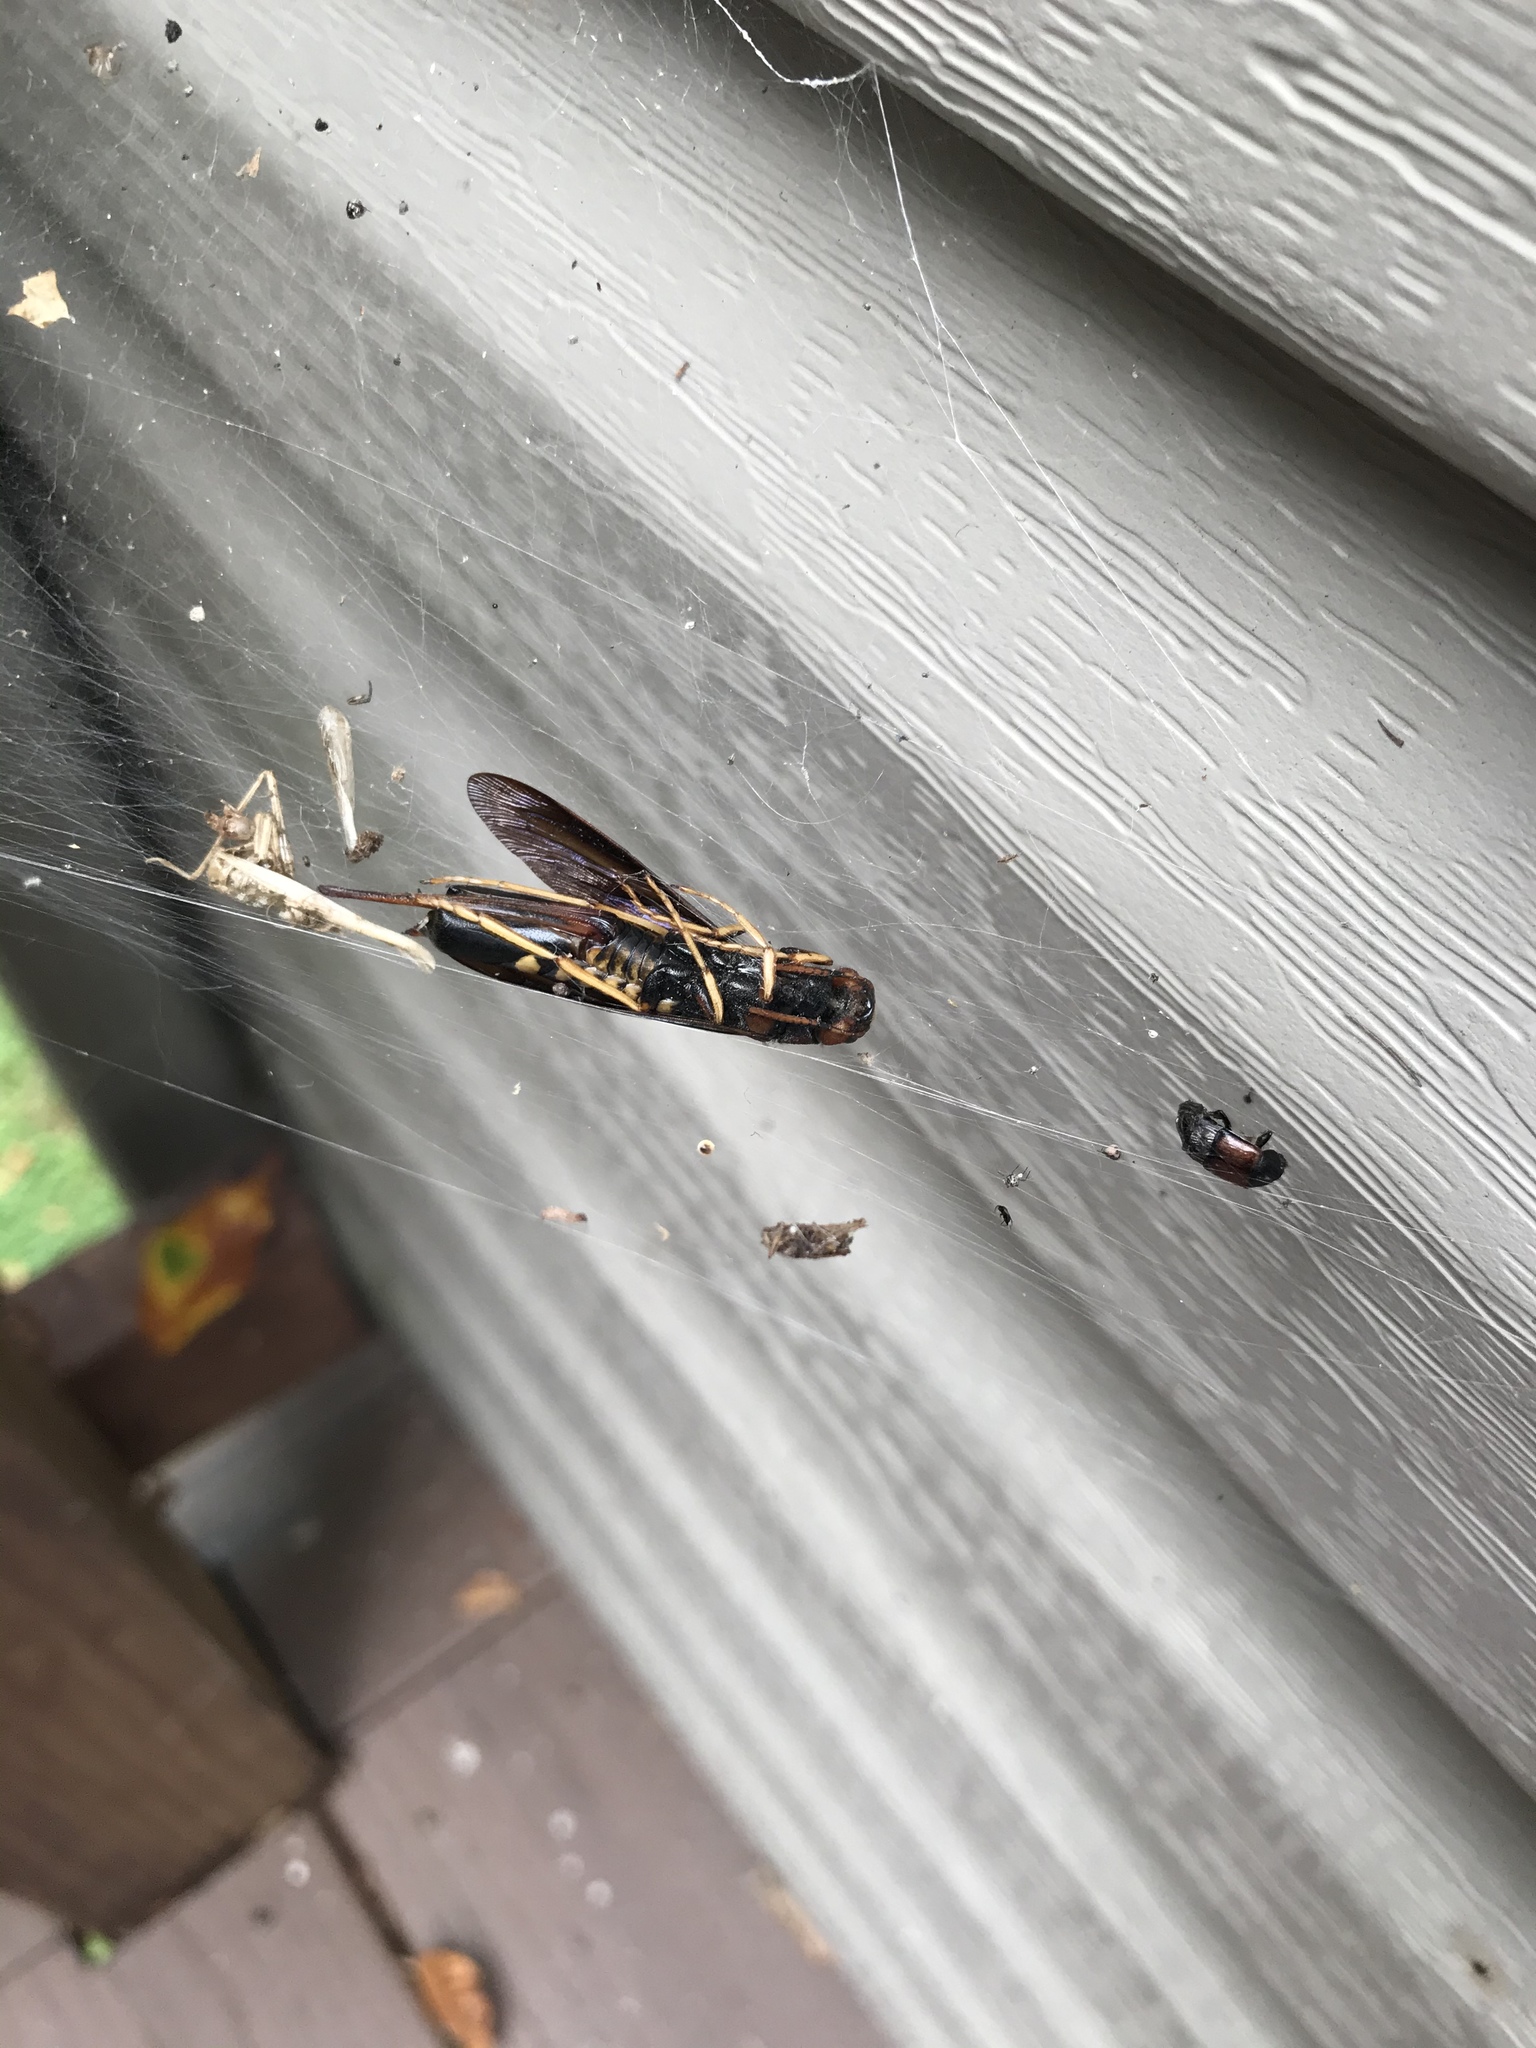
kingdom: Animalia
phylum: Arthropoda
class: Insecta
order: Hymenoptera
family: Siricidae
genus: Tremex
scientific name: Tremex columba
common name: Wasp
